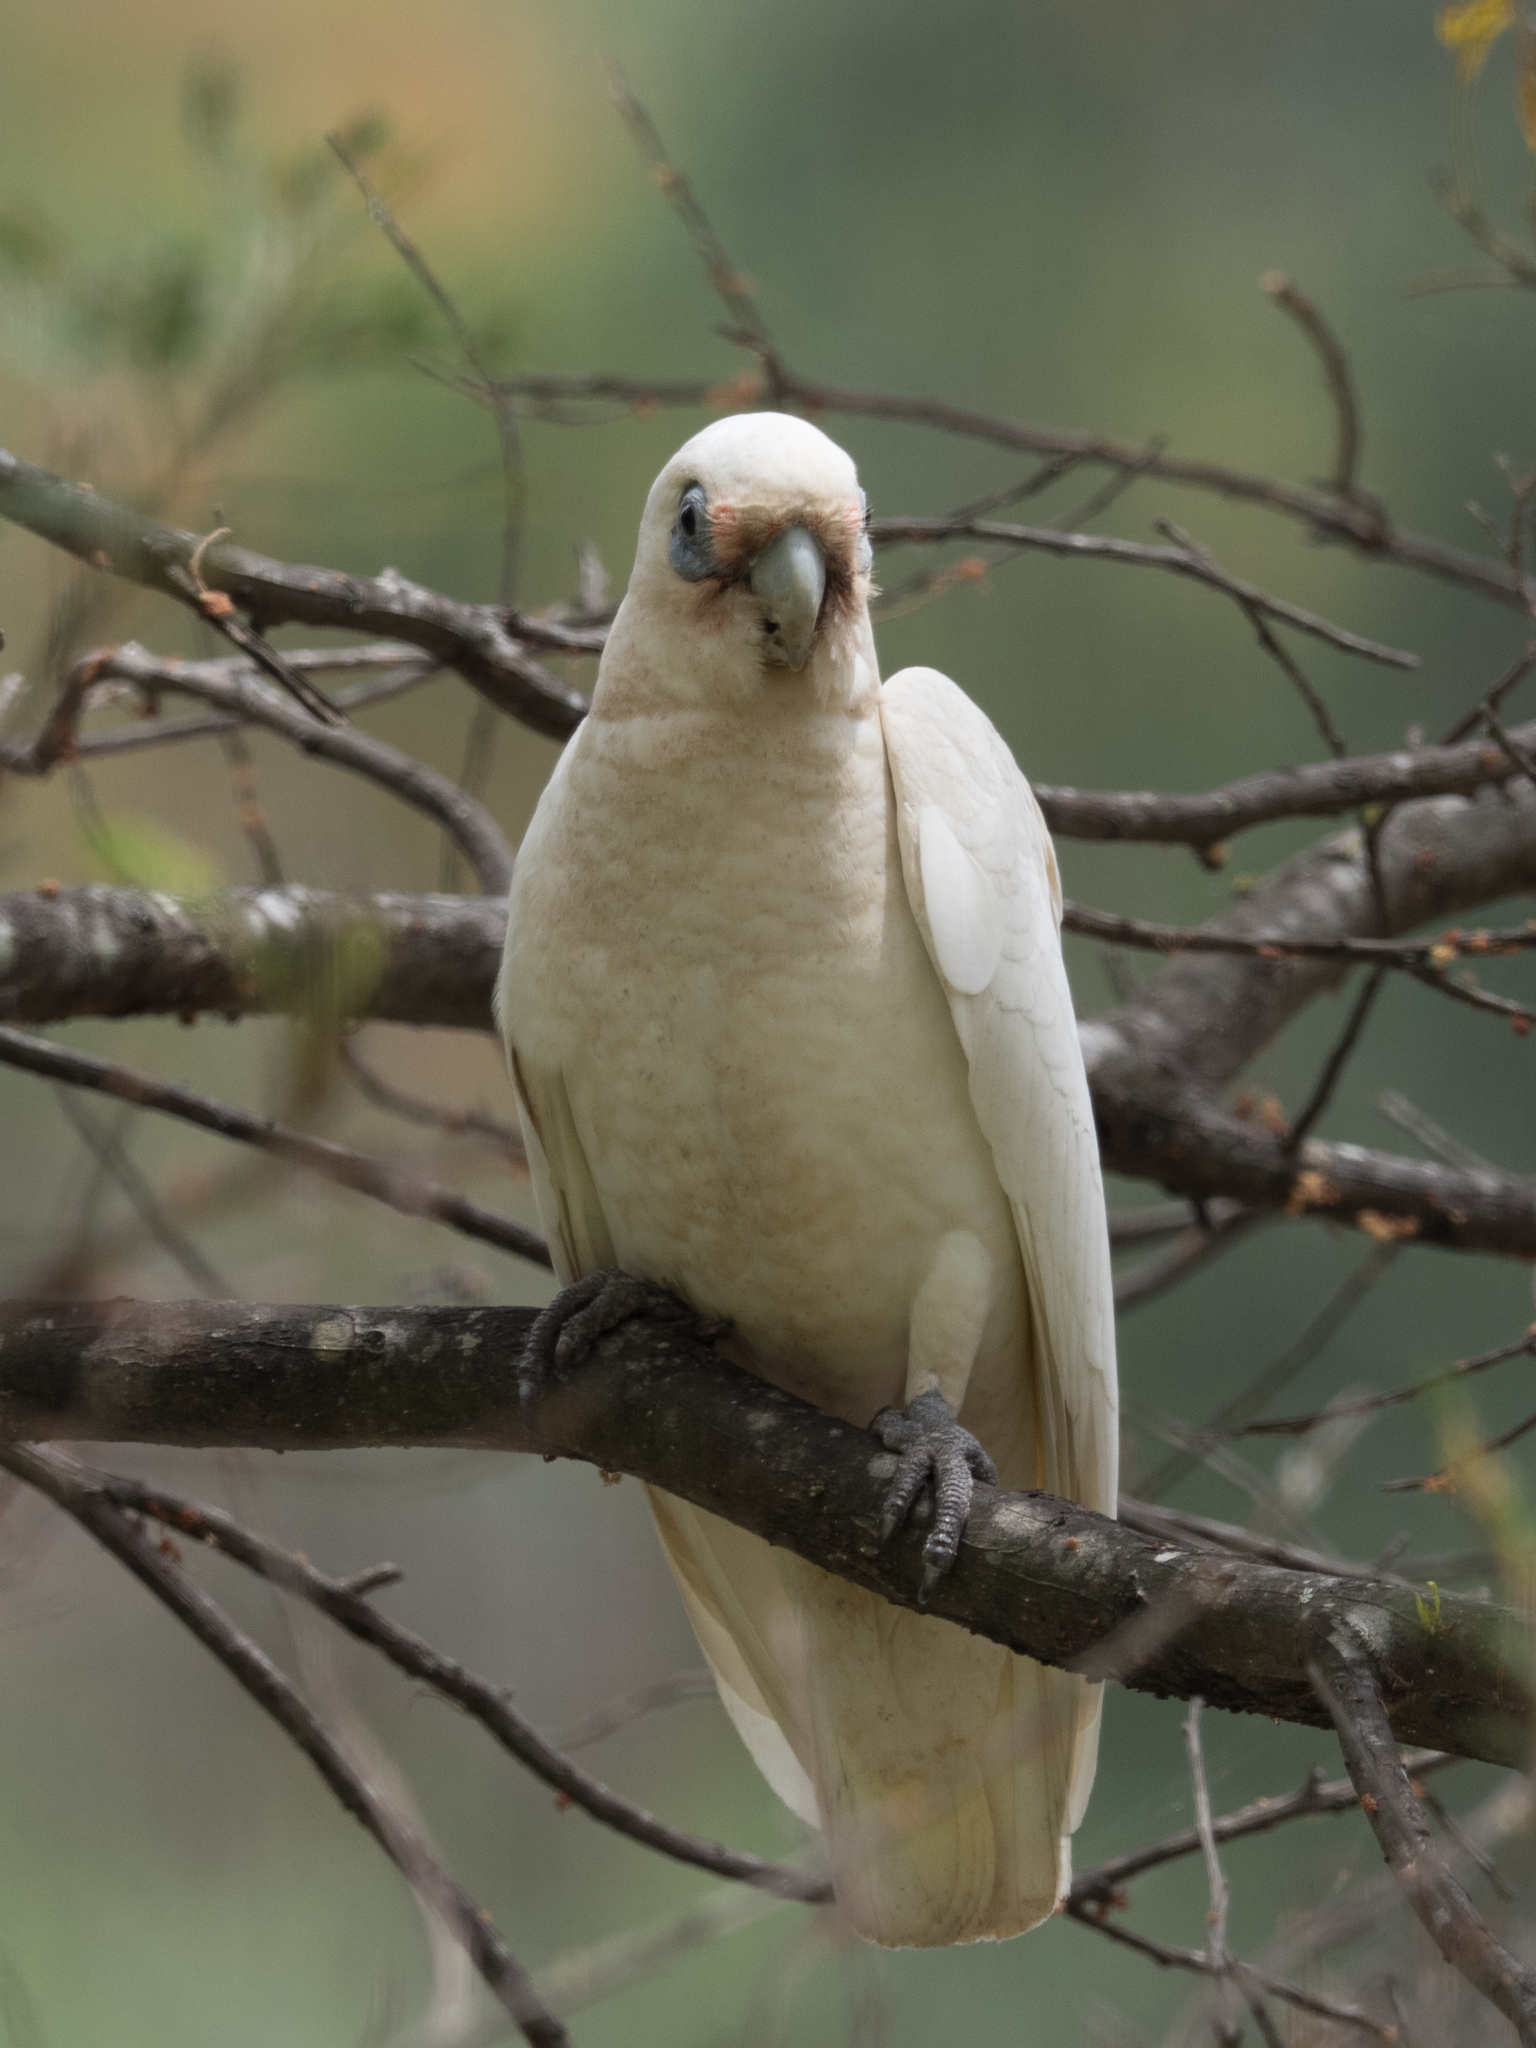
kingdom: Animalia
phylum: Chordata
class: Aves
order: Psittaciformes
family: Psittacidae
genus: Cacatua
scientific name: Cacatua sanguinea
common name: Little corella
